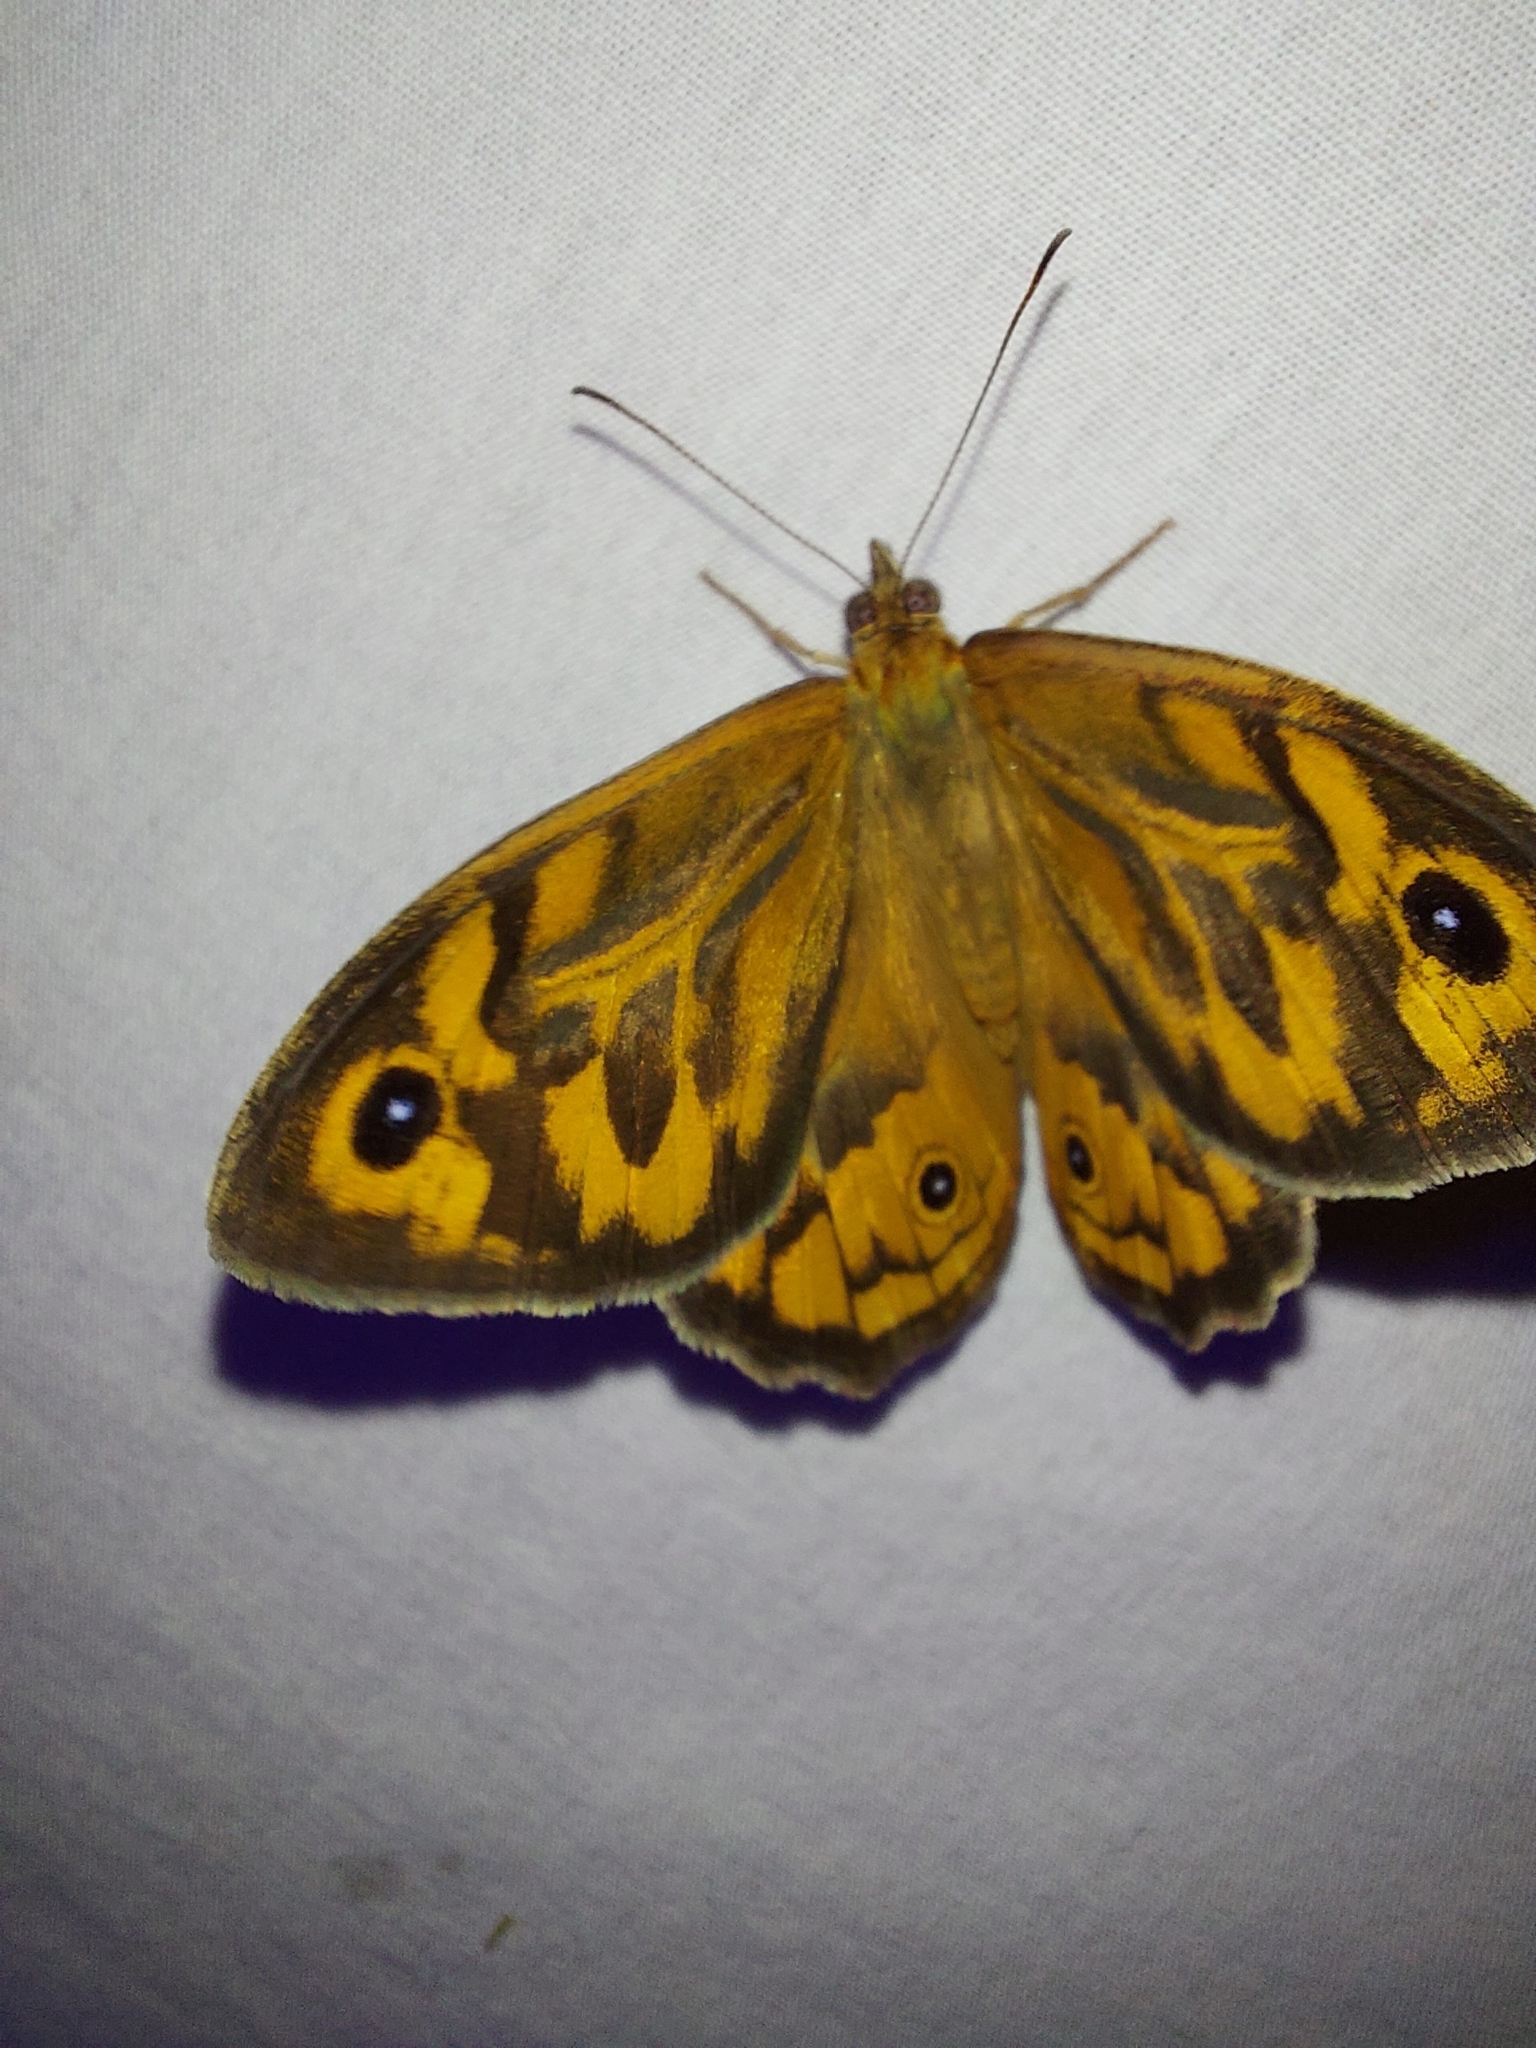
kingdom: Animalia
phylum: Arthropoda
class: Insecta
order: Lepidoptera
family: Nymphalidae
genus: Heteronympha
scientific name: Heteronympha merope
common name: Common brown
